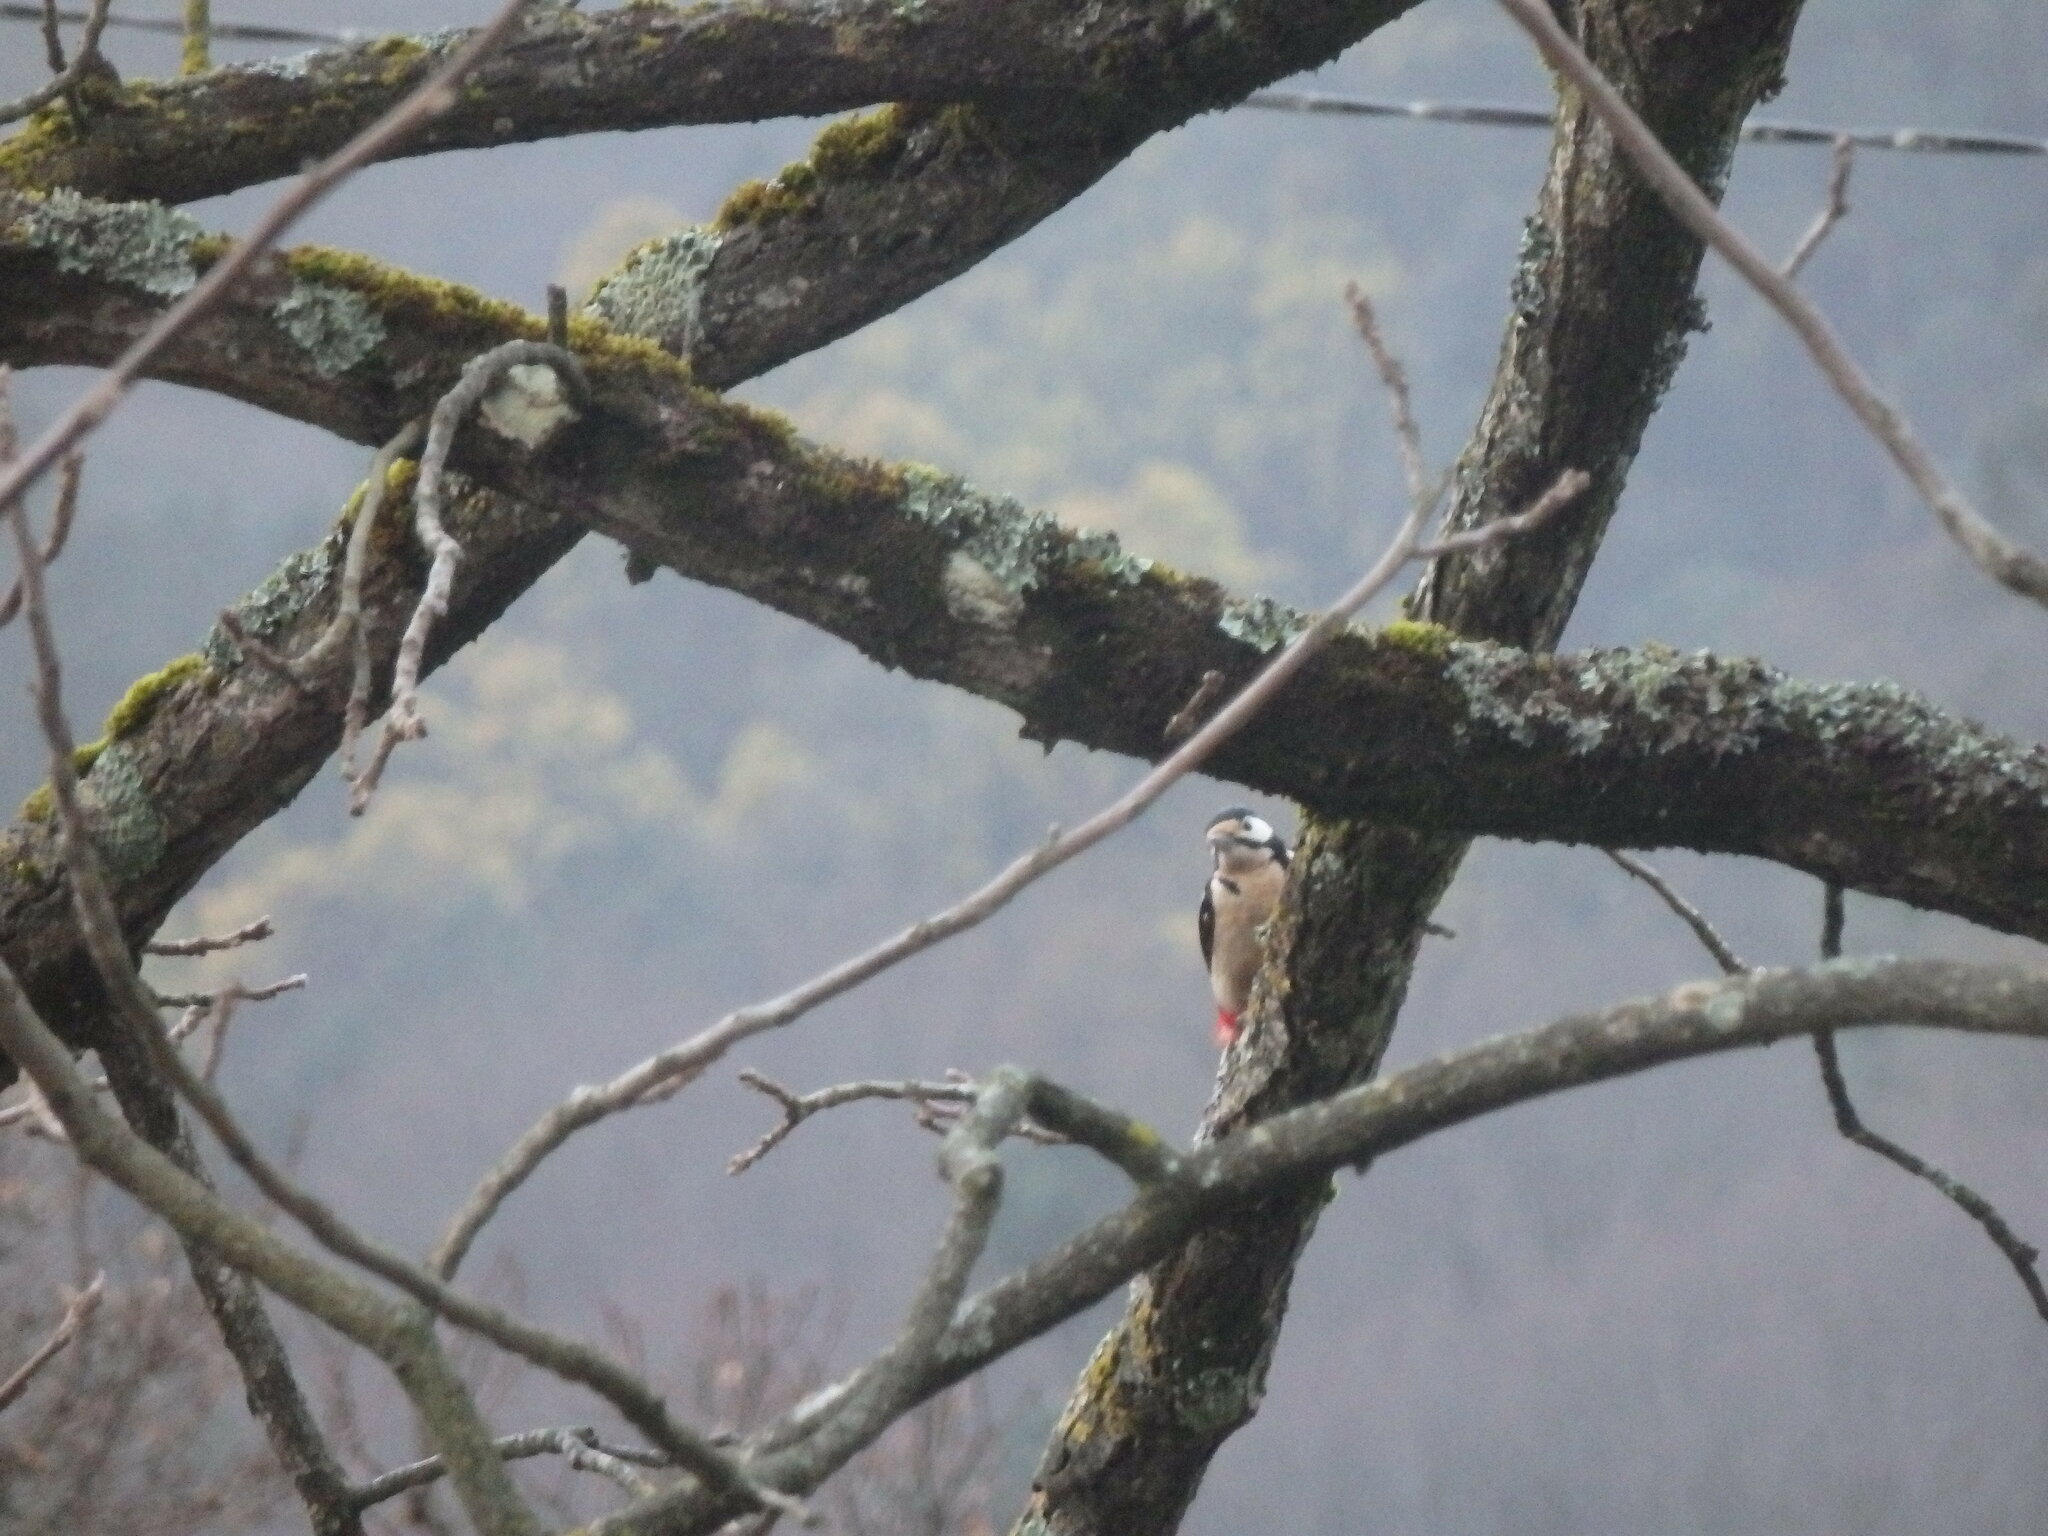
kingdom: Animalia
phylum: Chordata
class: Aves
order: Piciformes
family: Picidae
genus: Dendrocopos
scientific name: Dendrocopos major
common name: Great spotted woodpecker
